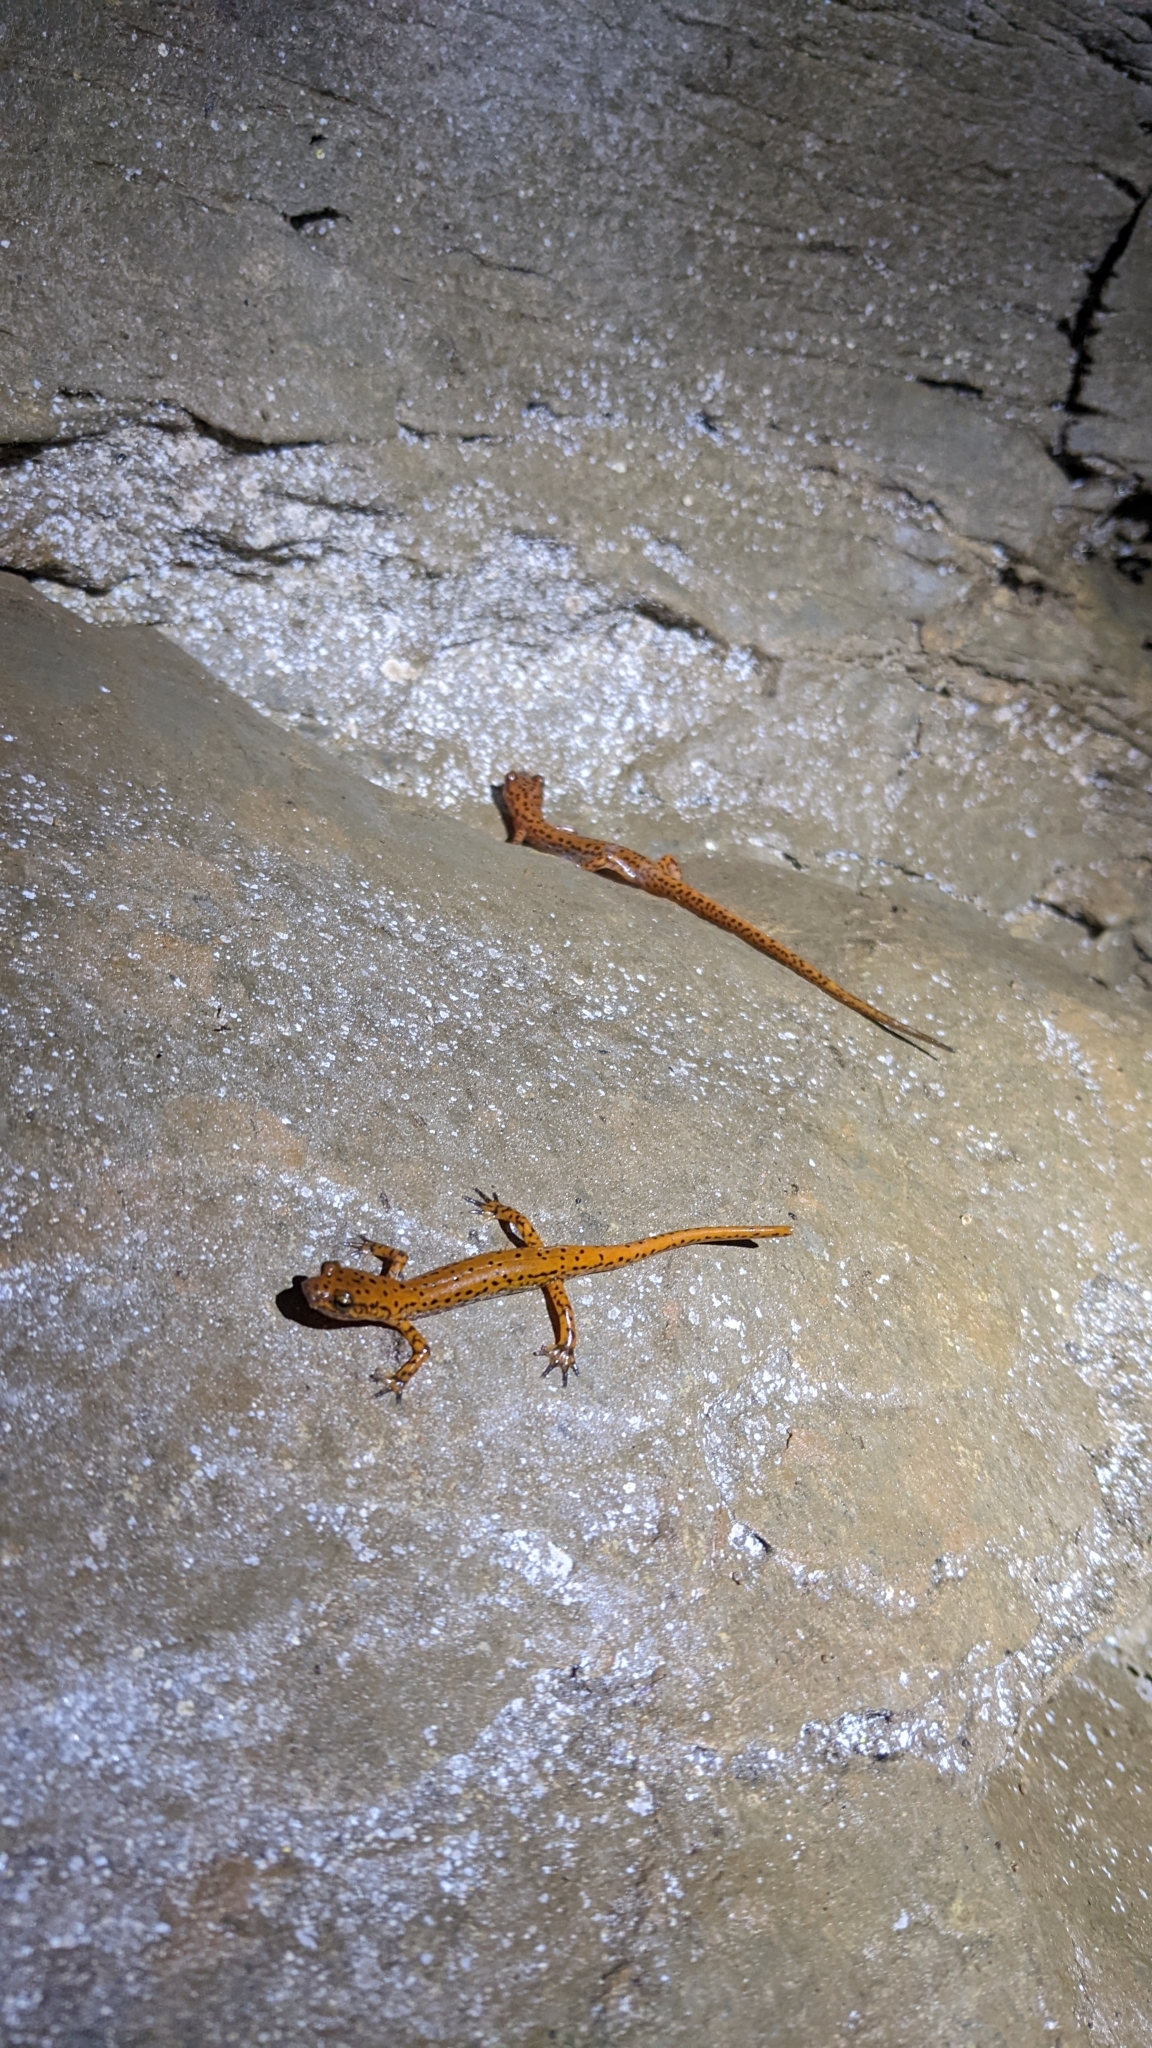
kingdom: Animalia
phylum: Chordata
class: Amphibia
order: Caudata
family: Plethodontidae
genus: Eurycea
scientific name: Eurycea lucifuga
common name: Cave salamander
